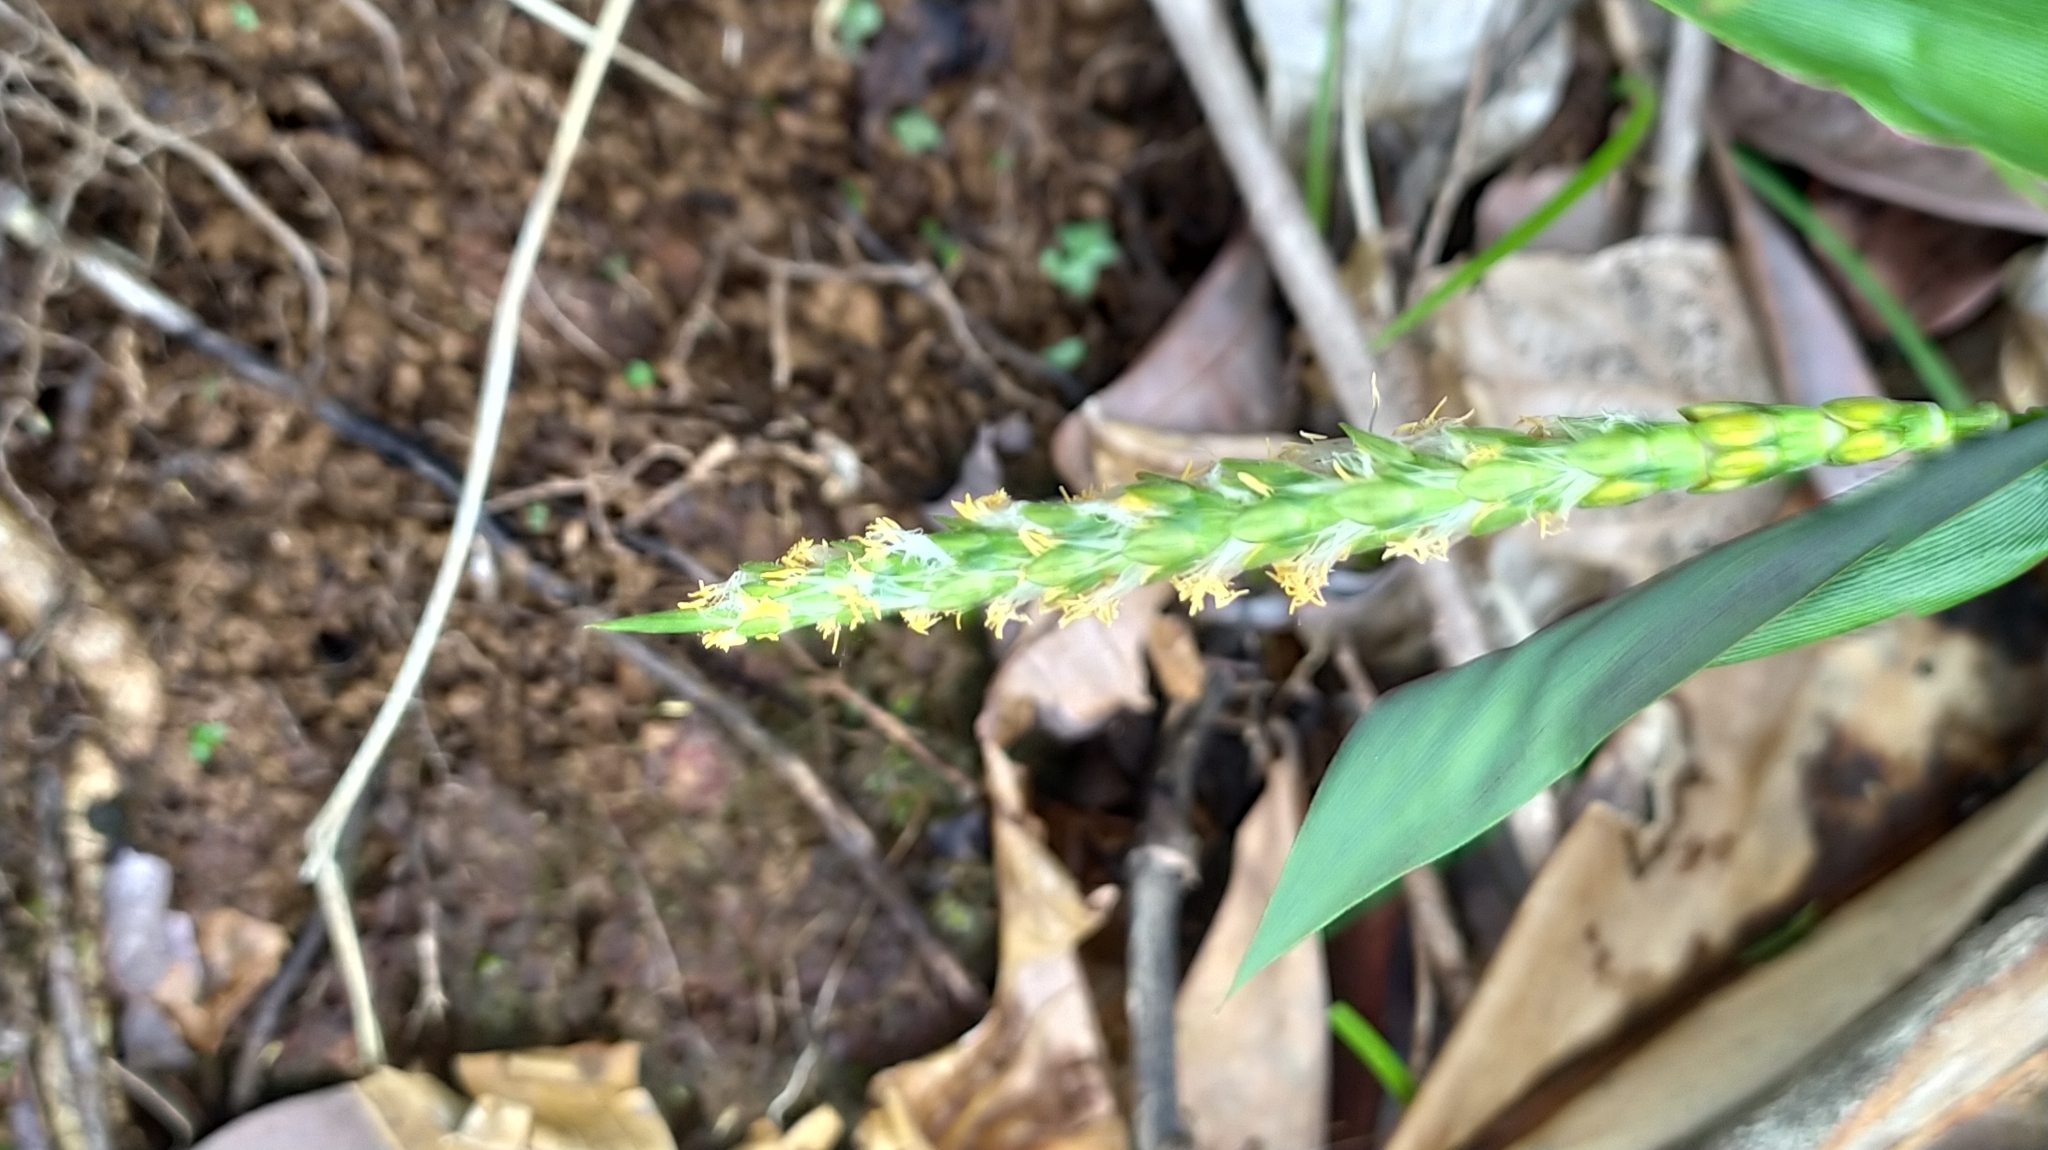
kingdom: Plantae
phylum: Tracheophyta
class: Liliopsida
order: Poales
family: Poaceae
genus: Pariana
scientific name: Pariana campestris
